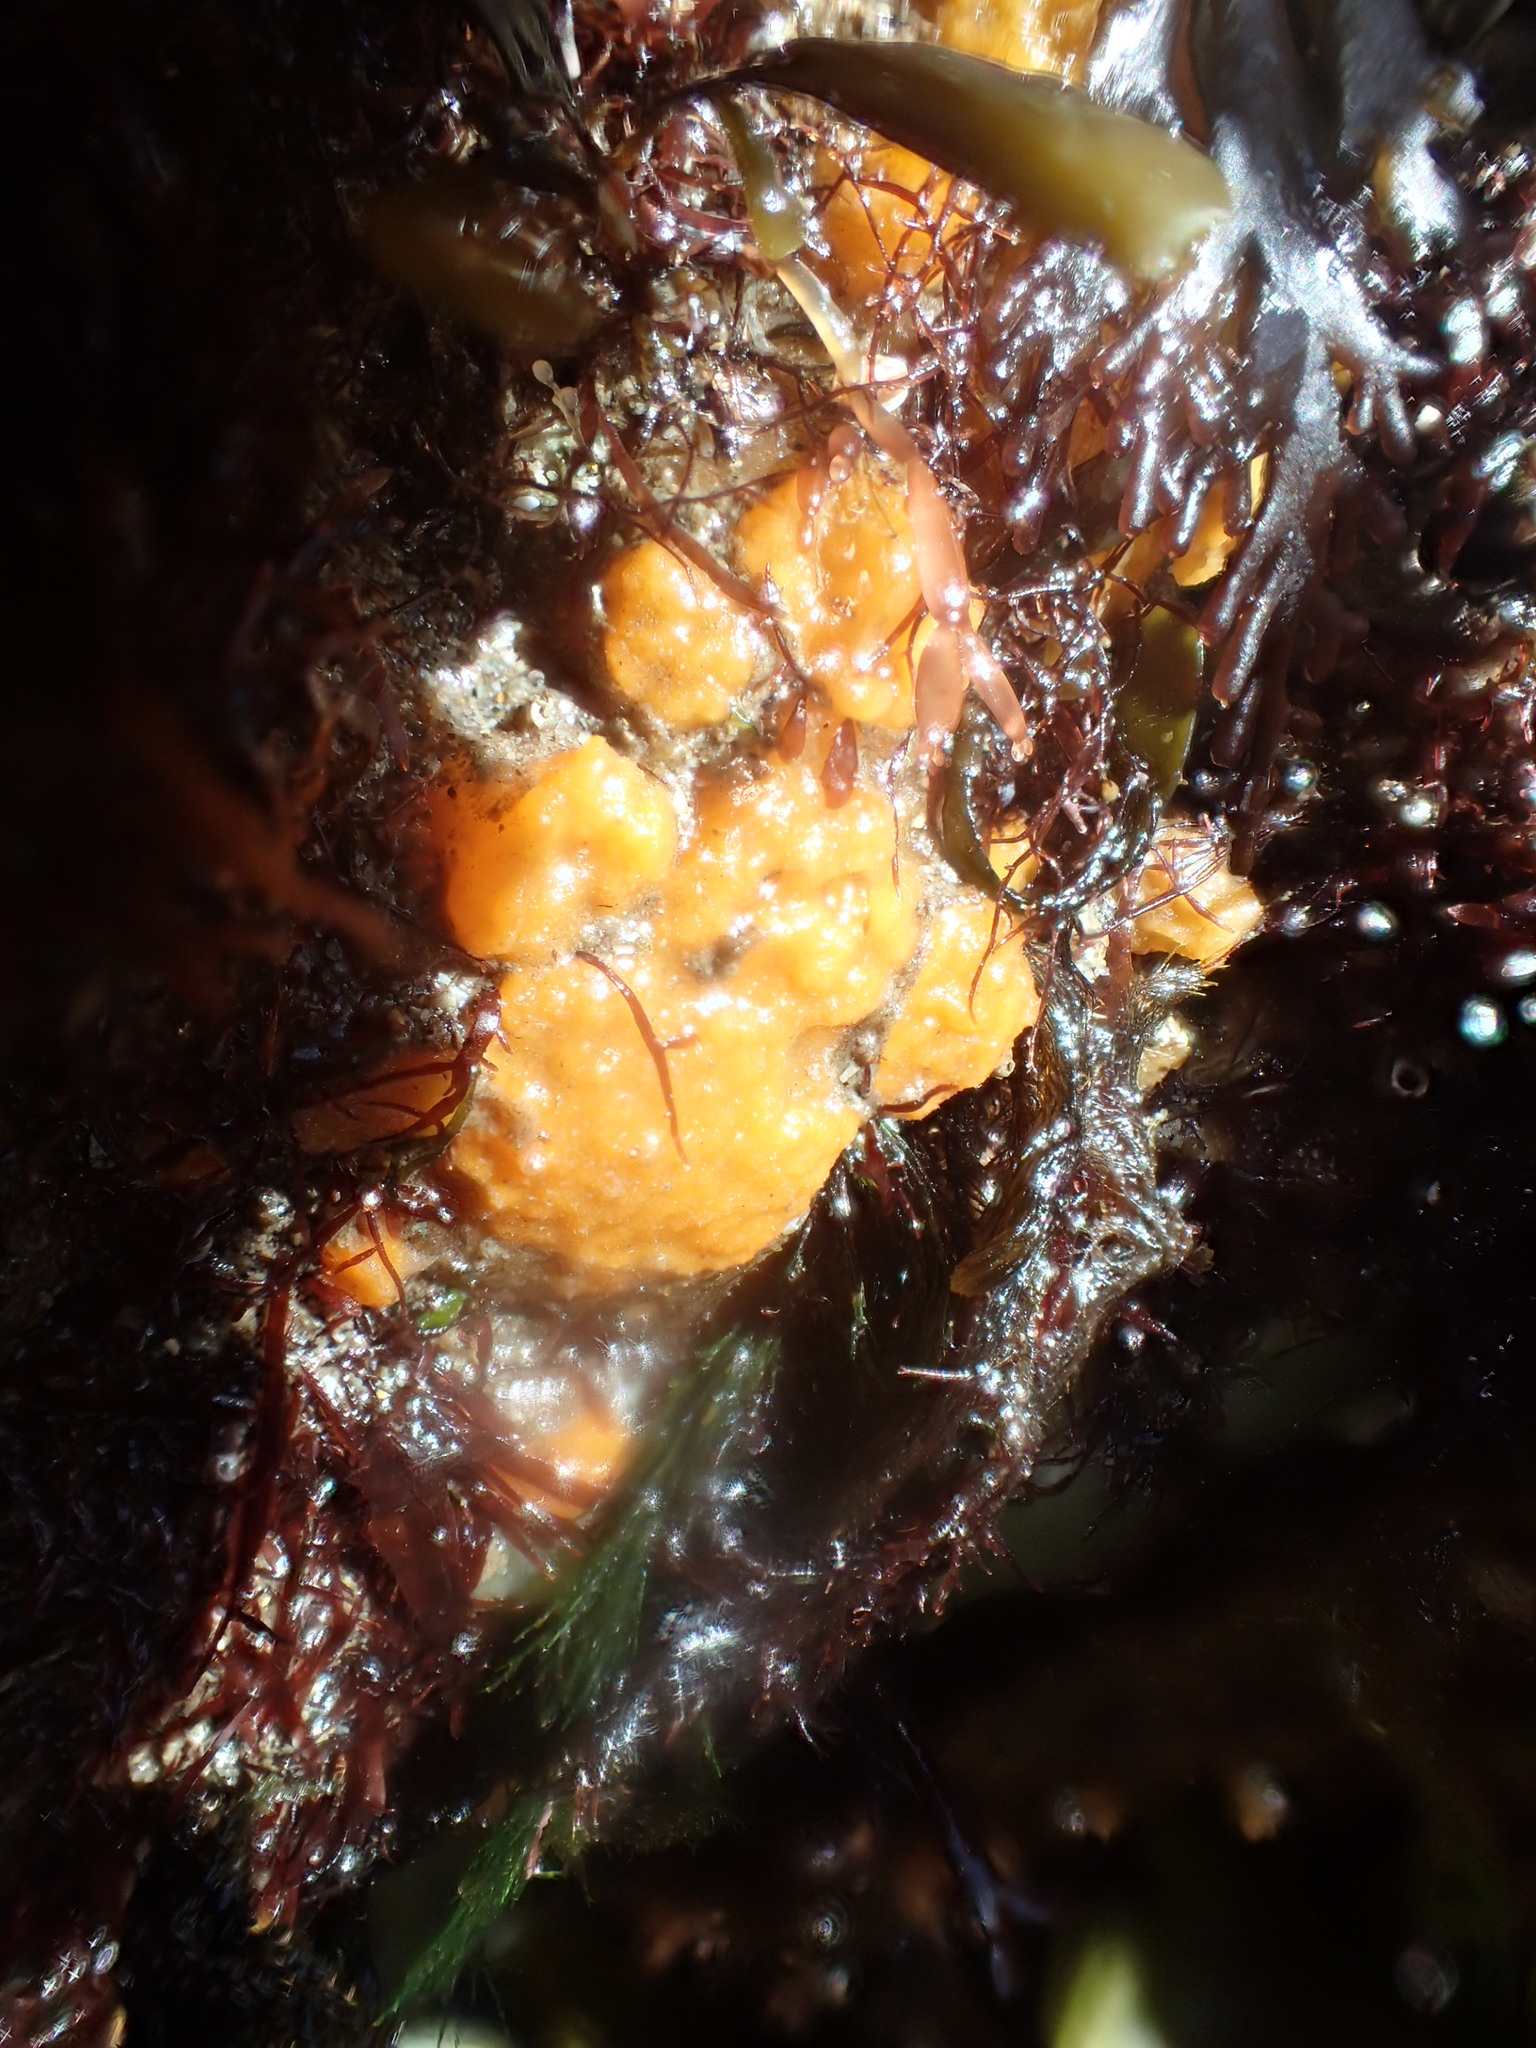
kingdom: Animalia
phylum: Porifera
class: Demospongiae
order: Suberitida
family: Halichondriidae
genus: Hymeniacidon
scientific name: Hymeniacidon perlevis
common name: Crumb-of-bread sponge
